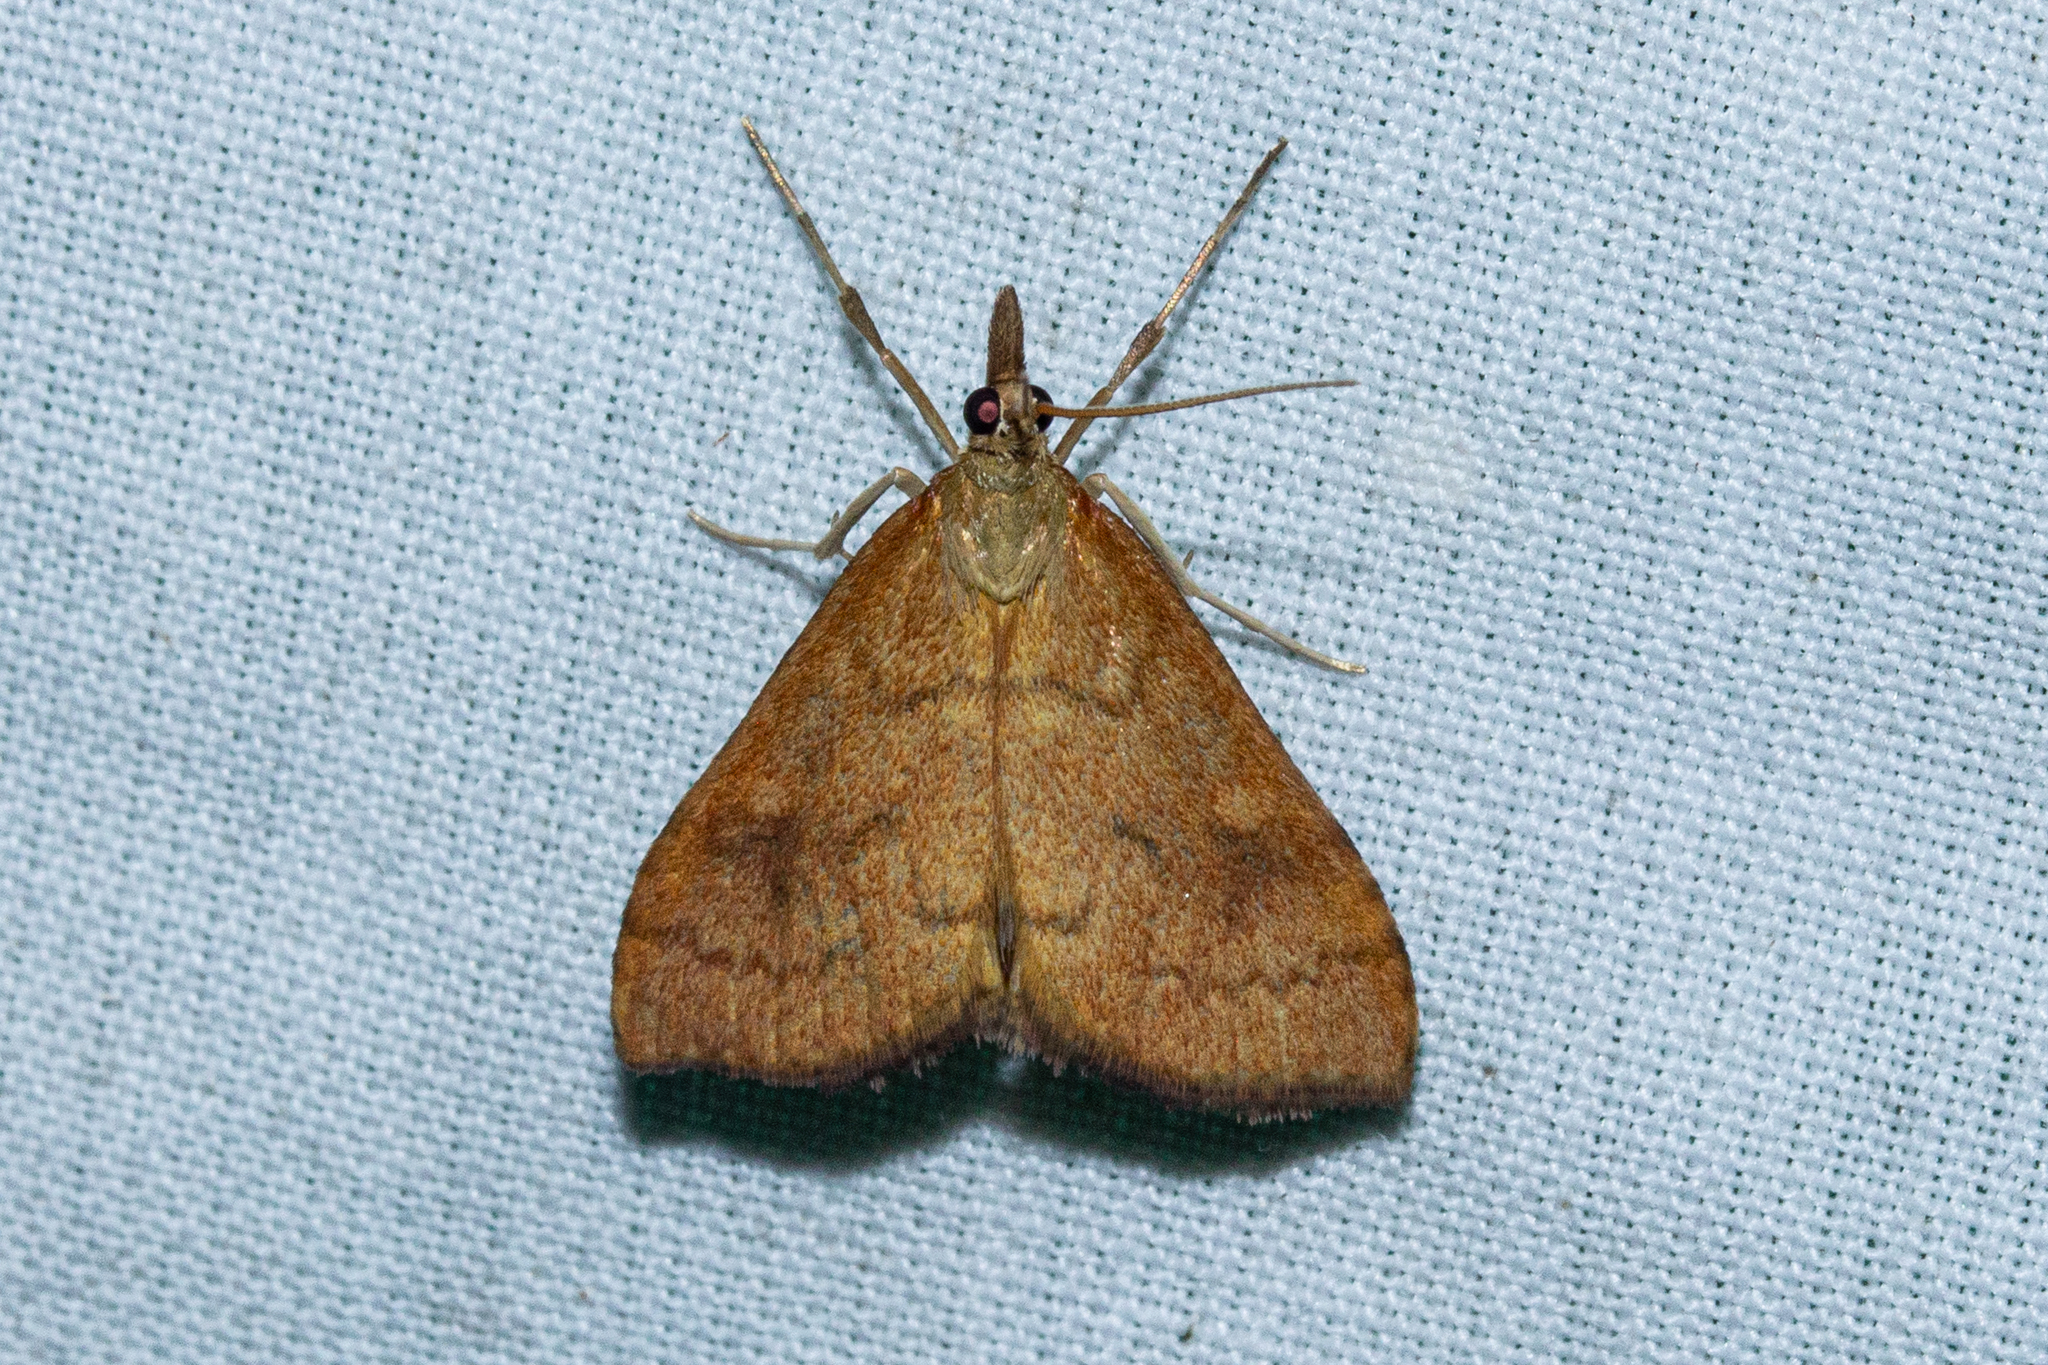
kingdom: Animalia
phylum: Arthropoda
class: Insecta
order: Lepidoptera
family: Crambidae
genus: Udea
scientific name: Udea Mnesictena flavidalis
